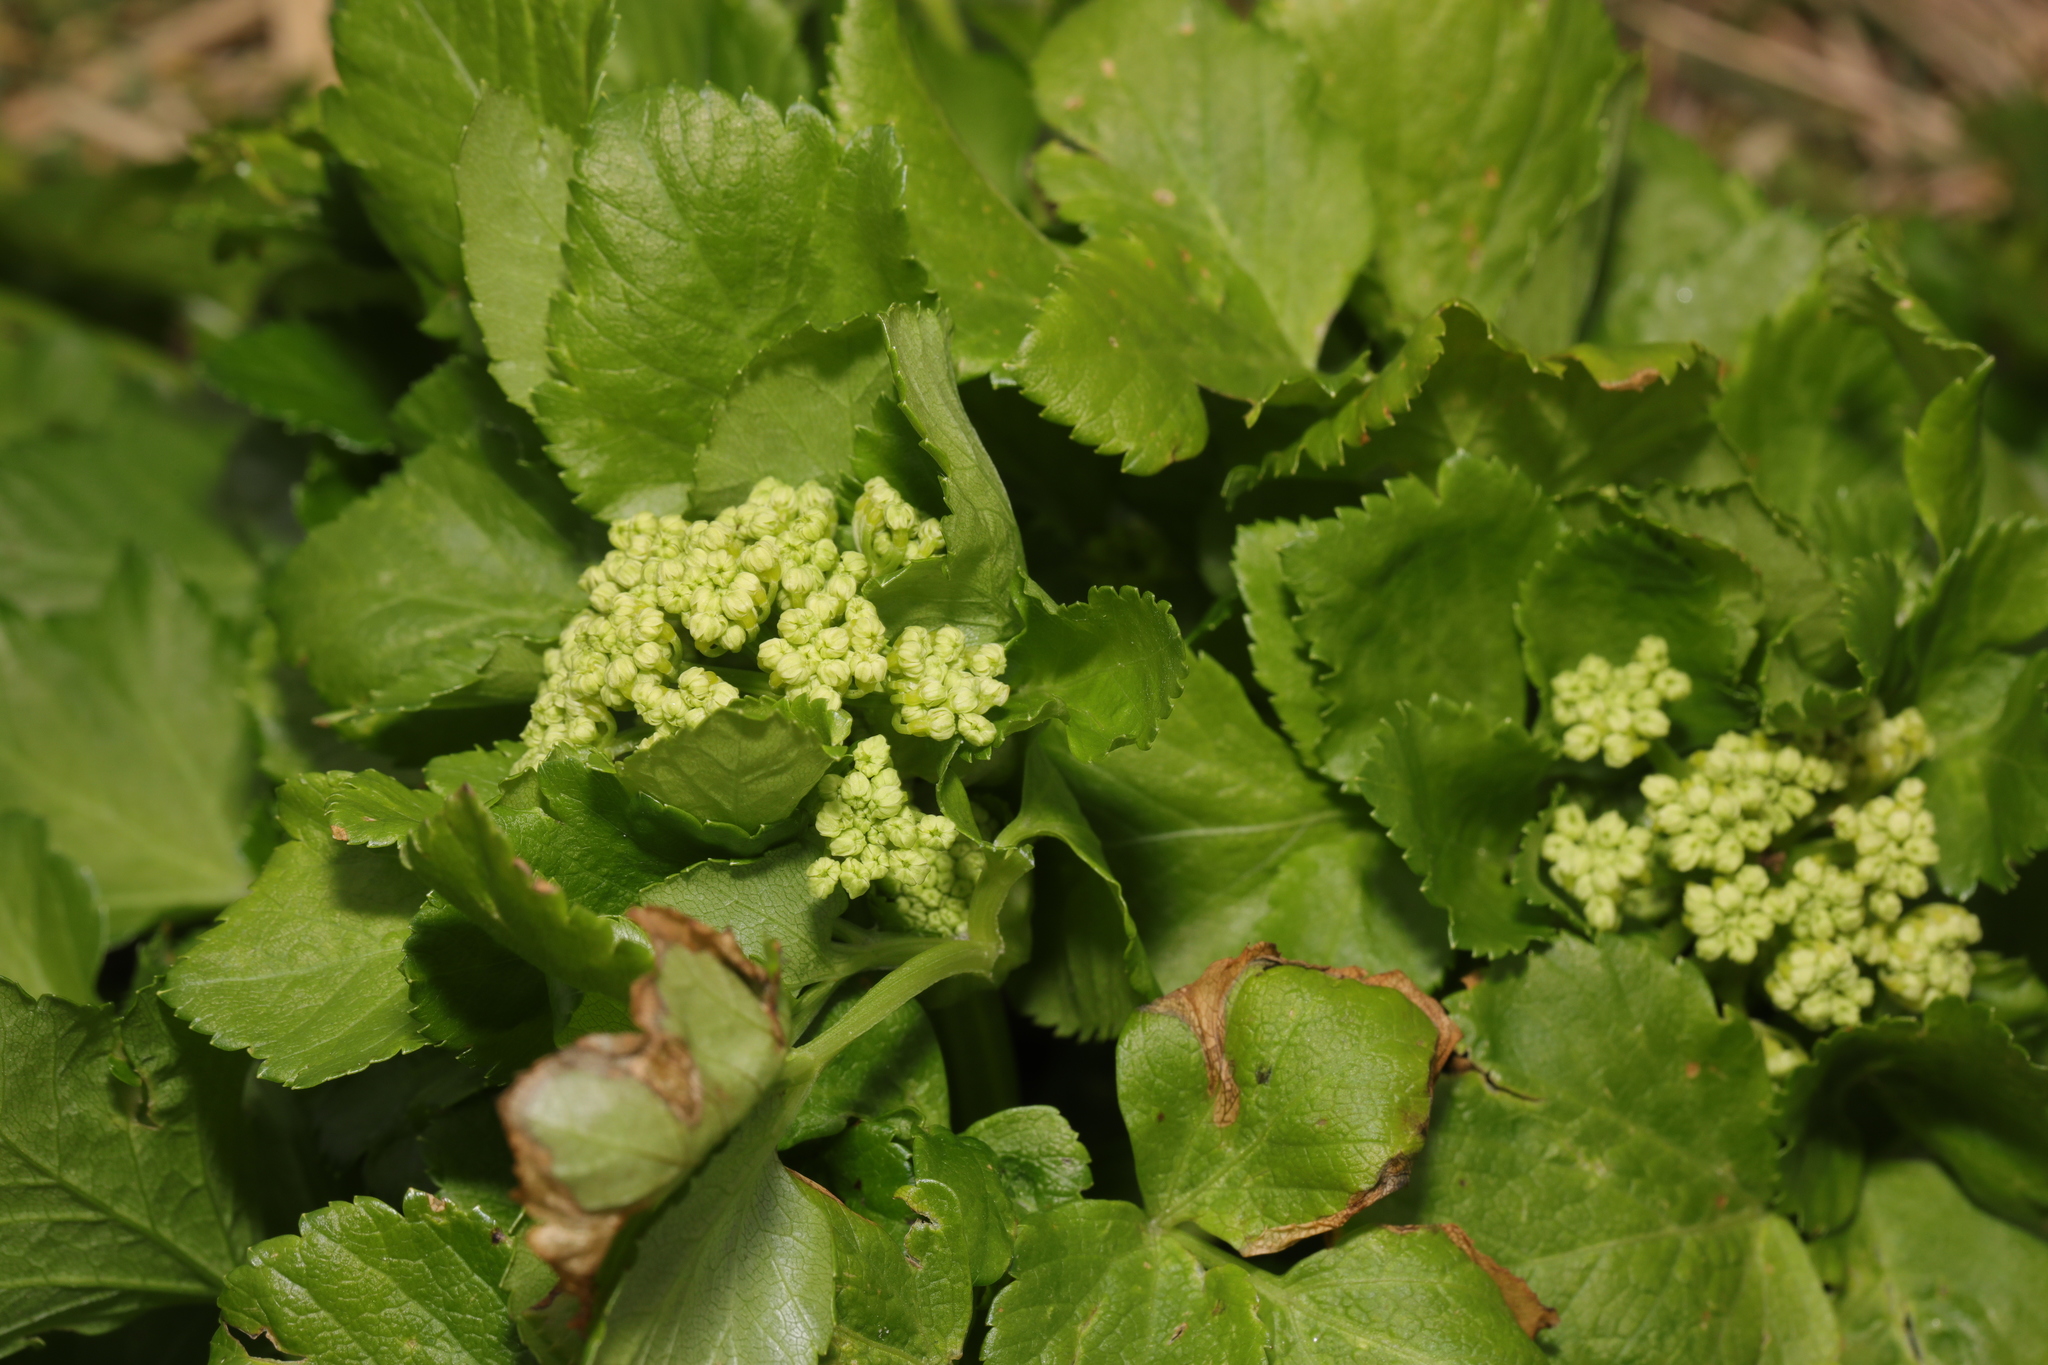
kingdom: Plantae
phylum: Tracheophyta
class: Magnoliopsida
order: Apiales
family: Apiaceae
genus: Smyrnium
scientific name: Smyrnium olusatrum
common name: Alexanders
